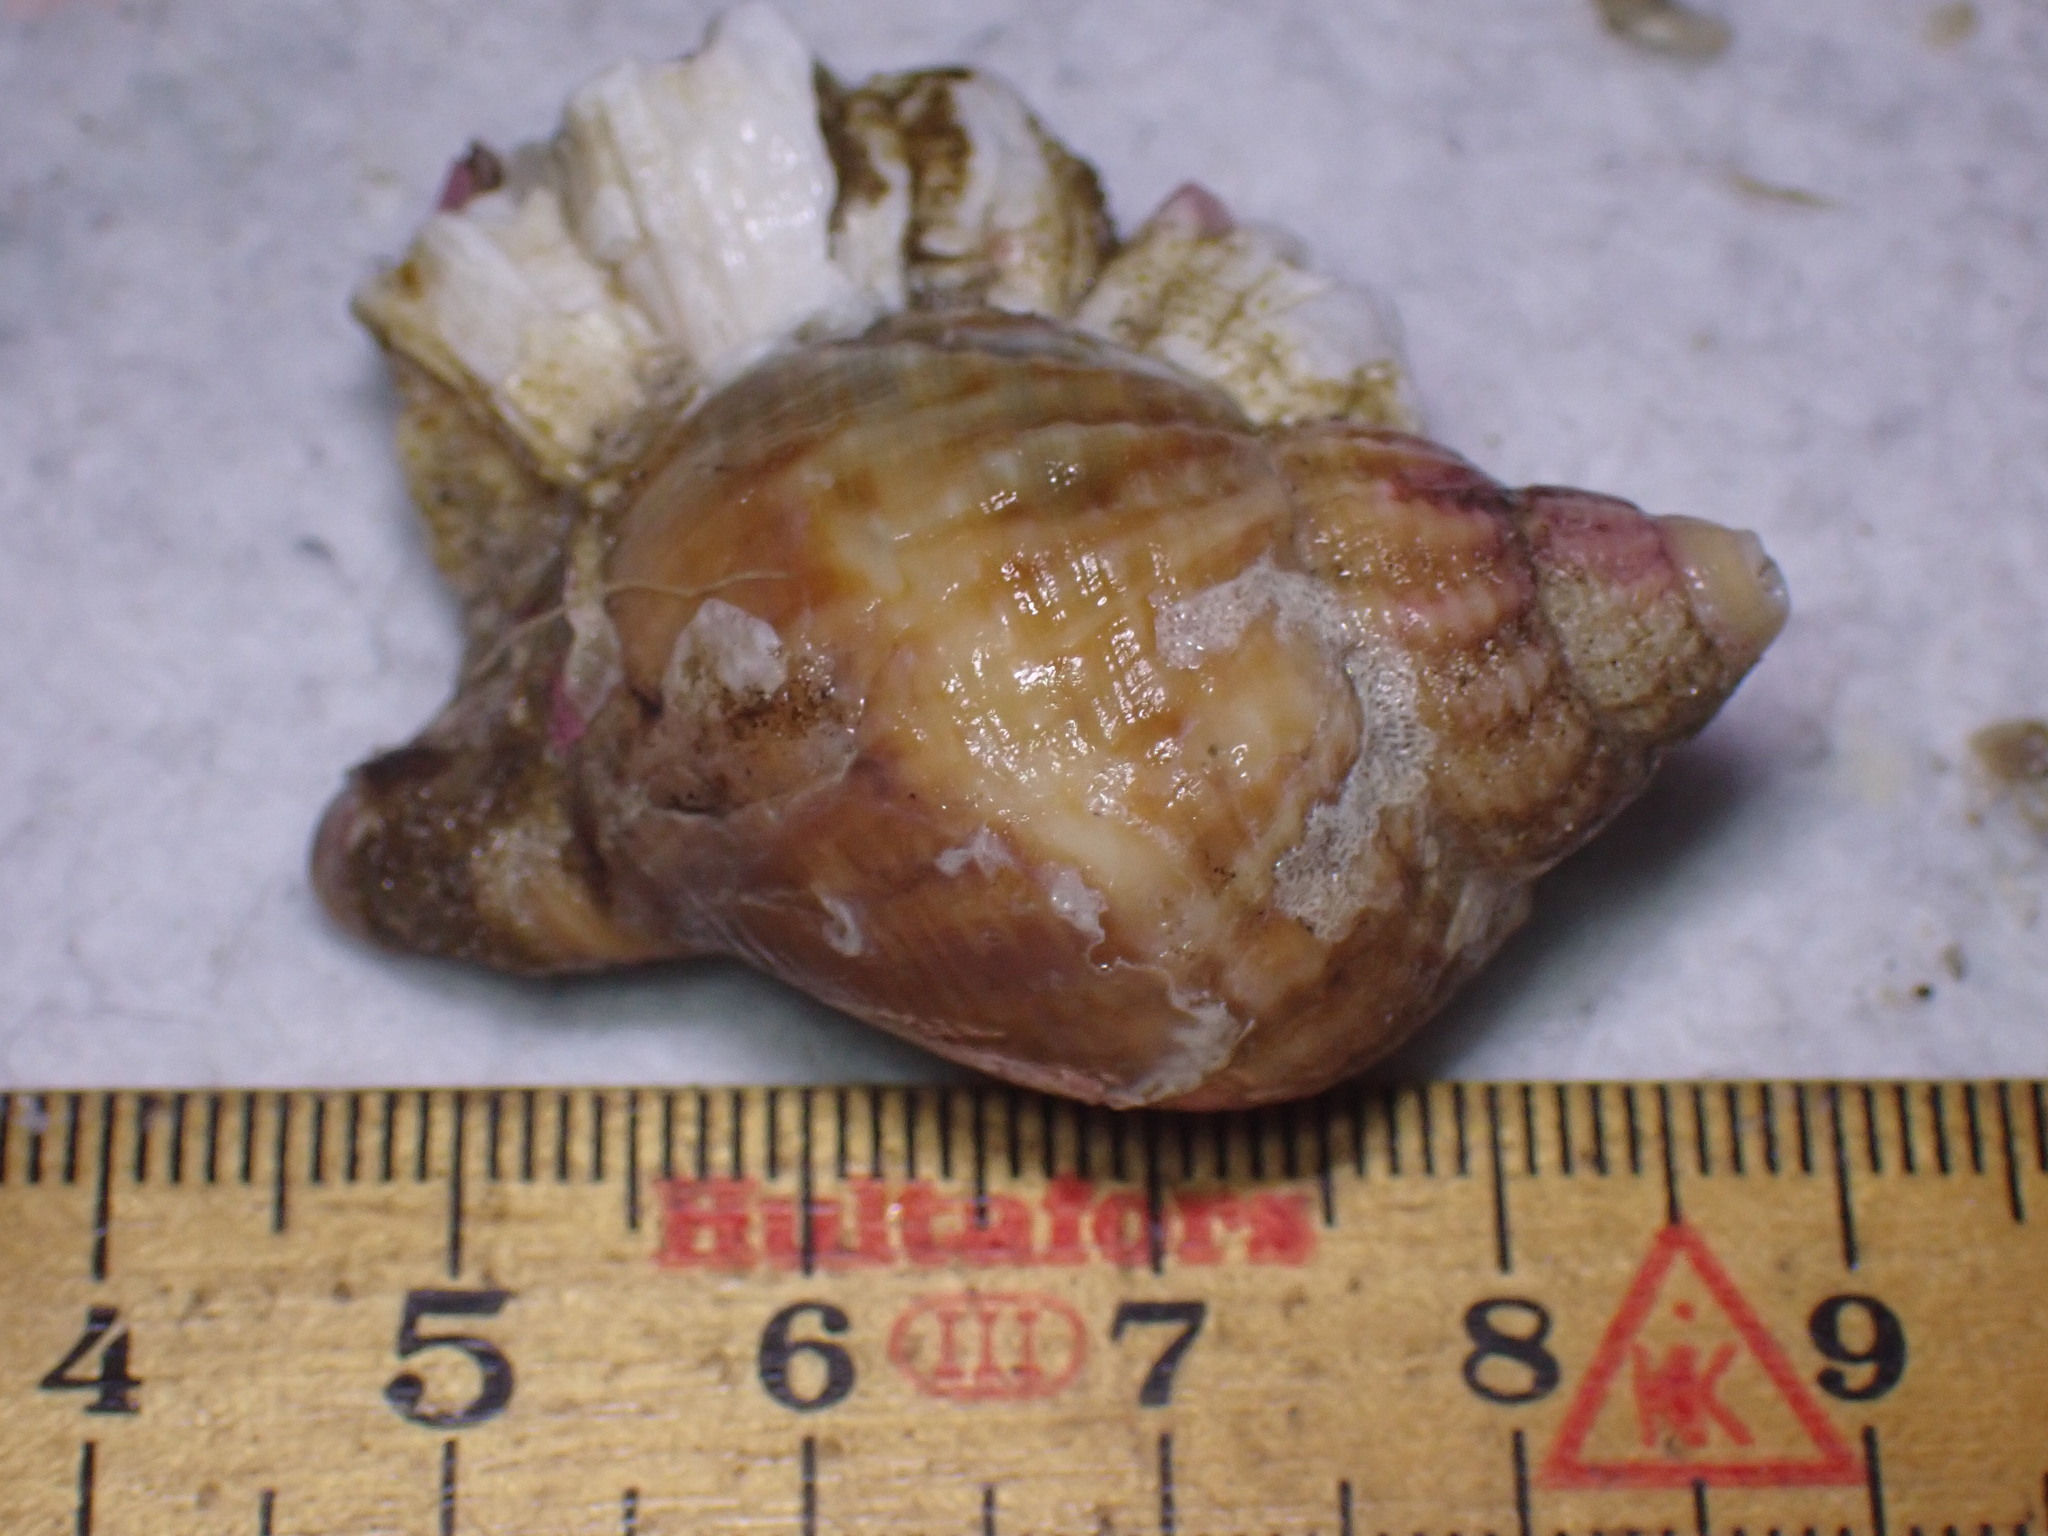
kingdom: Animalia
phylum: Mollusca
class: Gastropoda
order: Neogastropoda
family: Buccinidae
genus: Buccinum
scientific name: Buccinum undatum
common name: Common whelk
